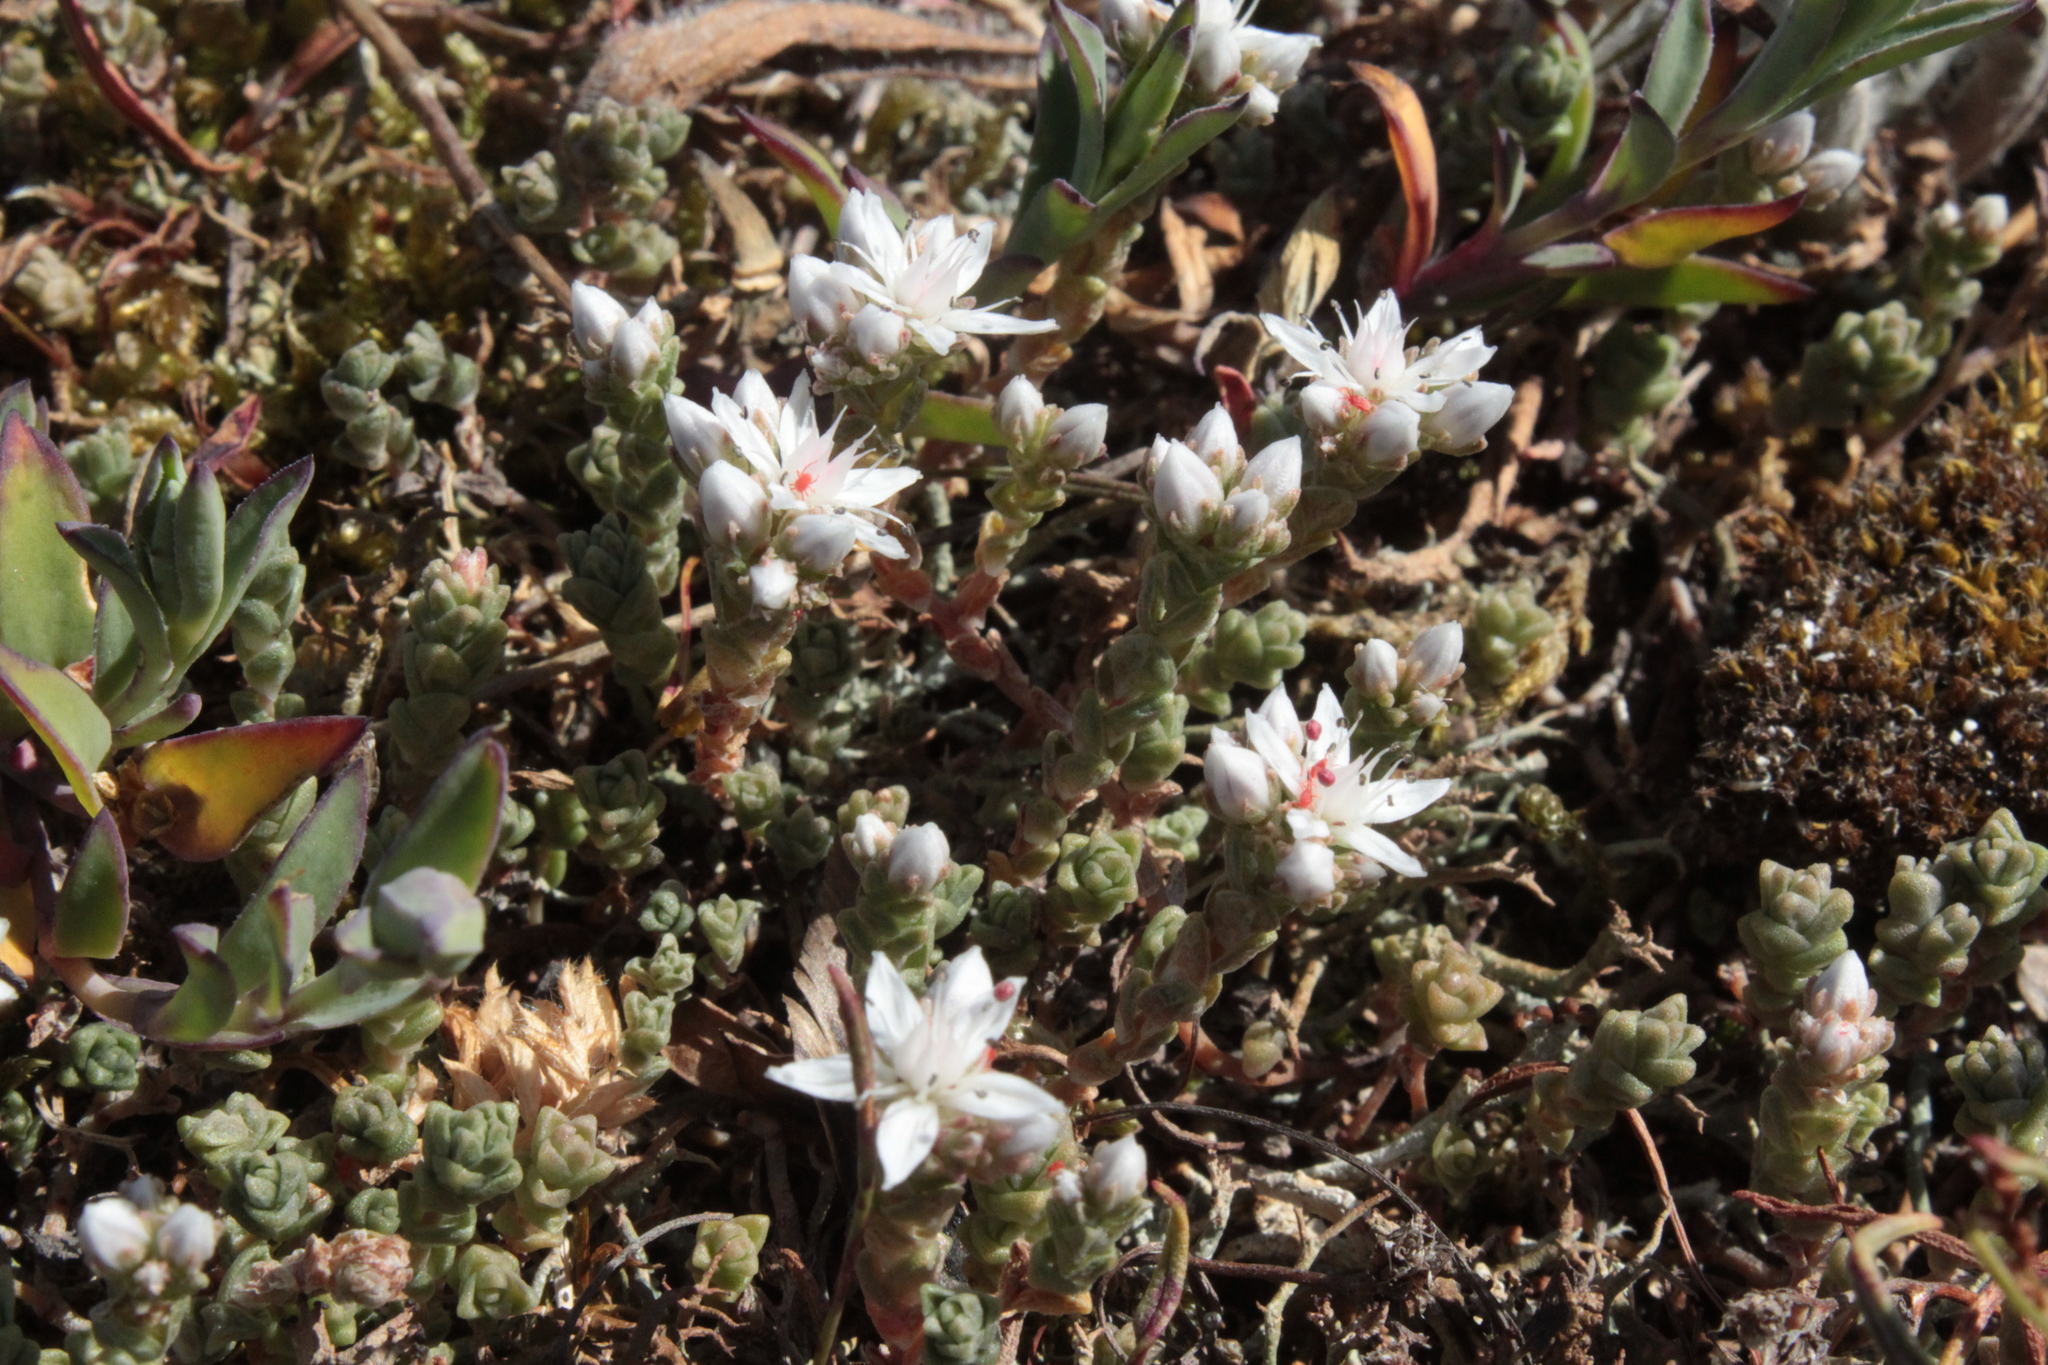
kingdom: Plantae
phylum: Tracheophyta
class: Magnoliopsida
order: Saxifragales
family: Crassulaceae
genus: Sedum
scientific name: Sedum anglicum
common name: English stonecrop
